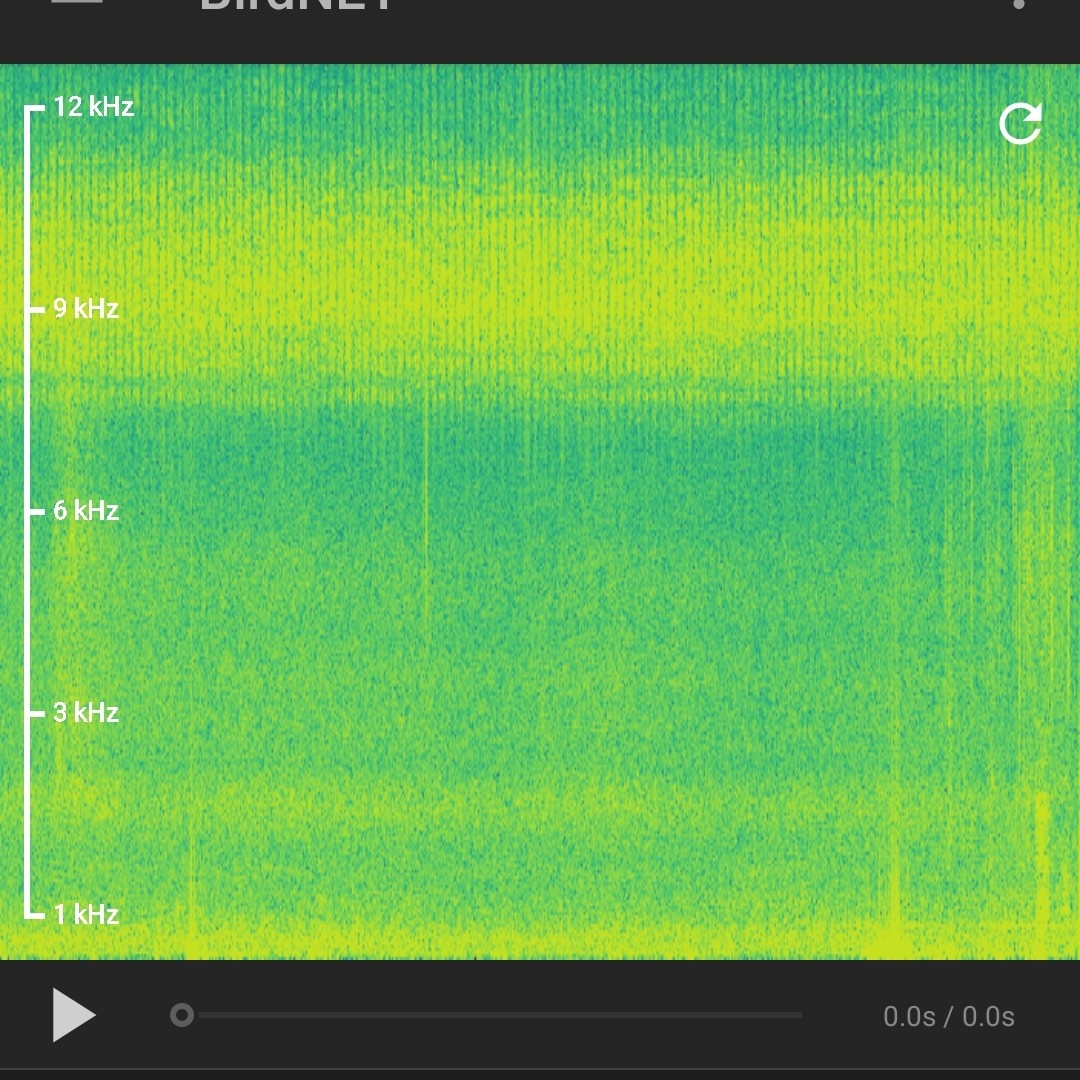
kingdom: Animalia
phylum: Arthropoda
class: Insecta
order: Orthoptera
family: Tettigoniidae
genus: Tettigonia
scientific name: Tettigonia viridissima
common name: Great green bush-cricket
